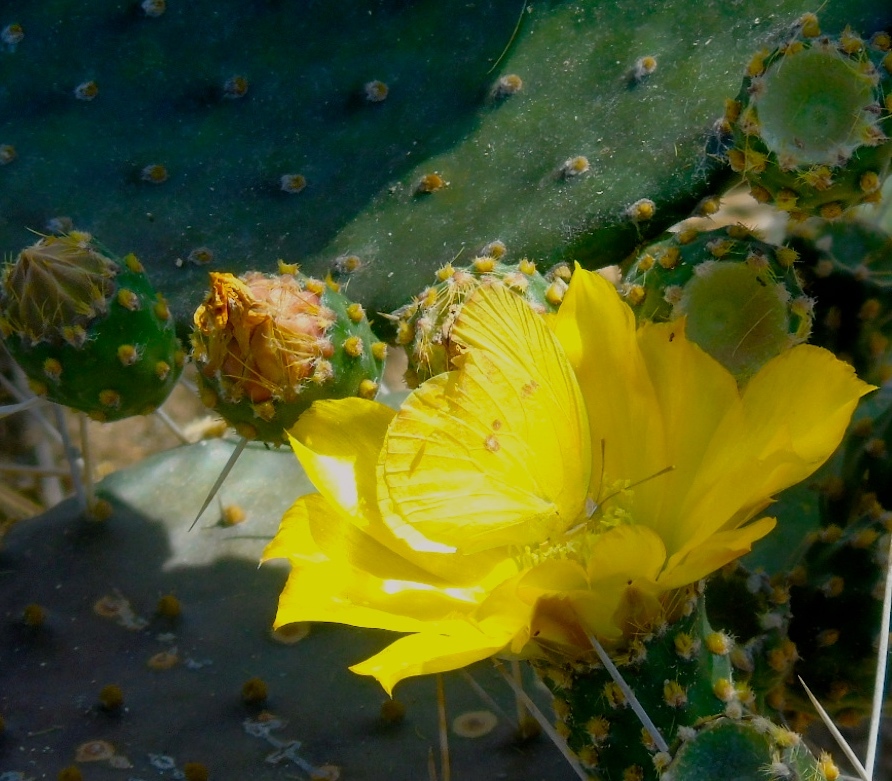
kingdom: Animalia
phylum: Arthropoda
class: Insecta
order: Lepidoptera
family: Pieridae
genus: Phoebis
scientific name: Phoebis
